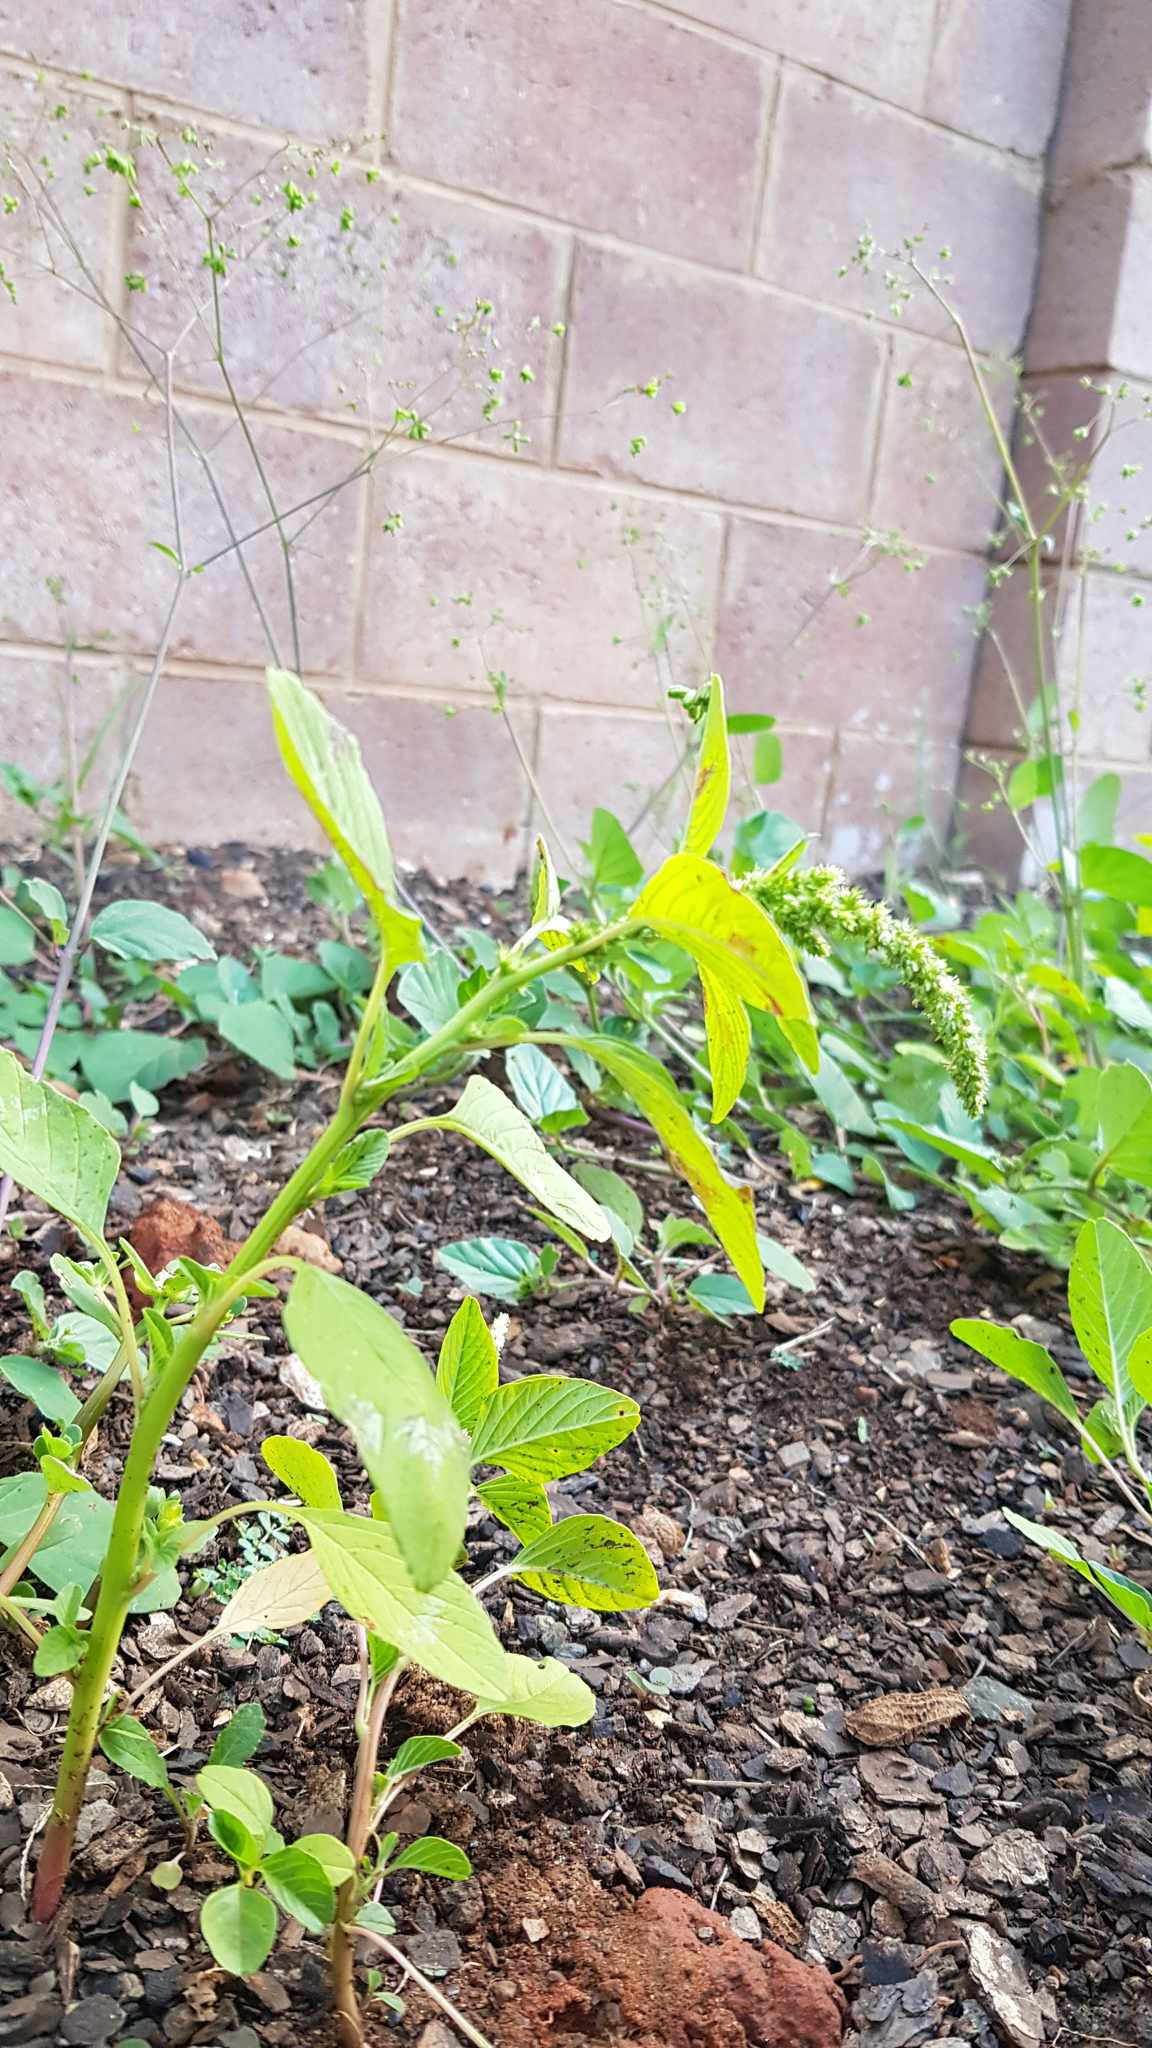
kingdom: Plantae
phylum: Tracheophyta
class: Magnoliopsida
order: Caryophyllales
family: Nyctaginaceae
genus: Boerhavia
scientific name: Boerhavia diffusa
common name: Red spiderling
